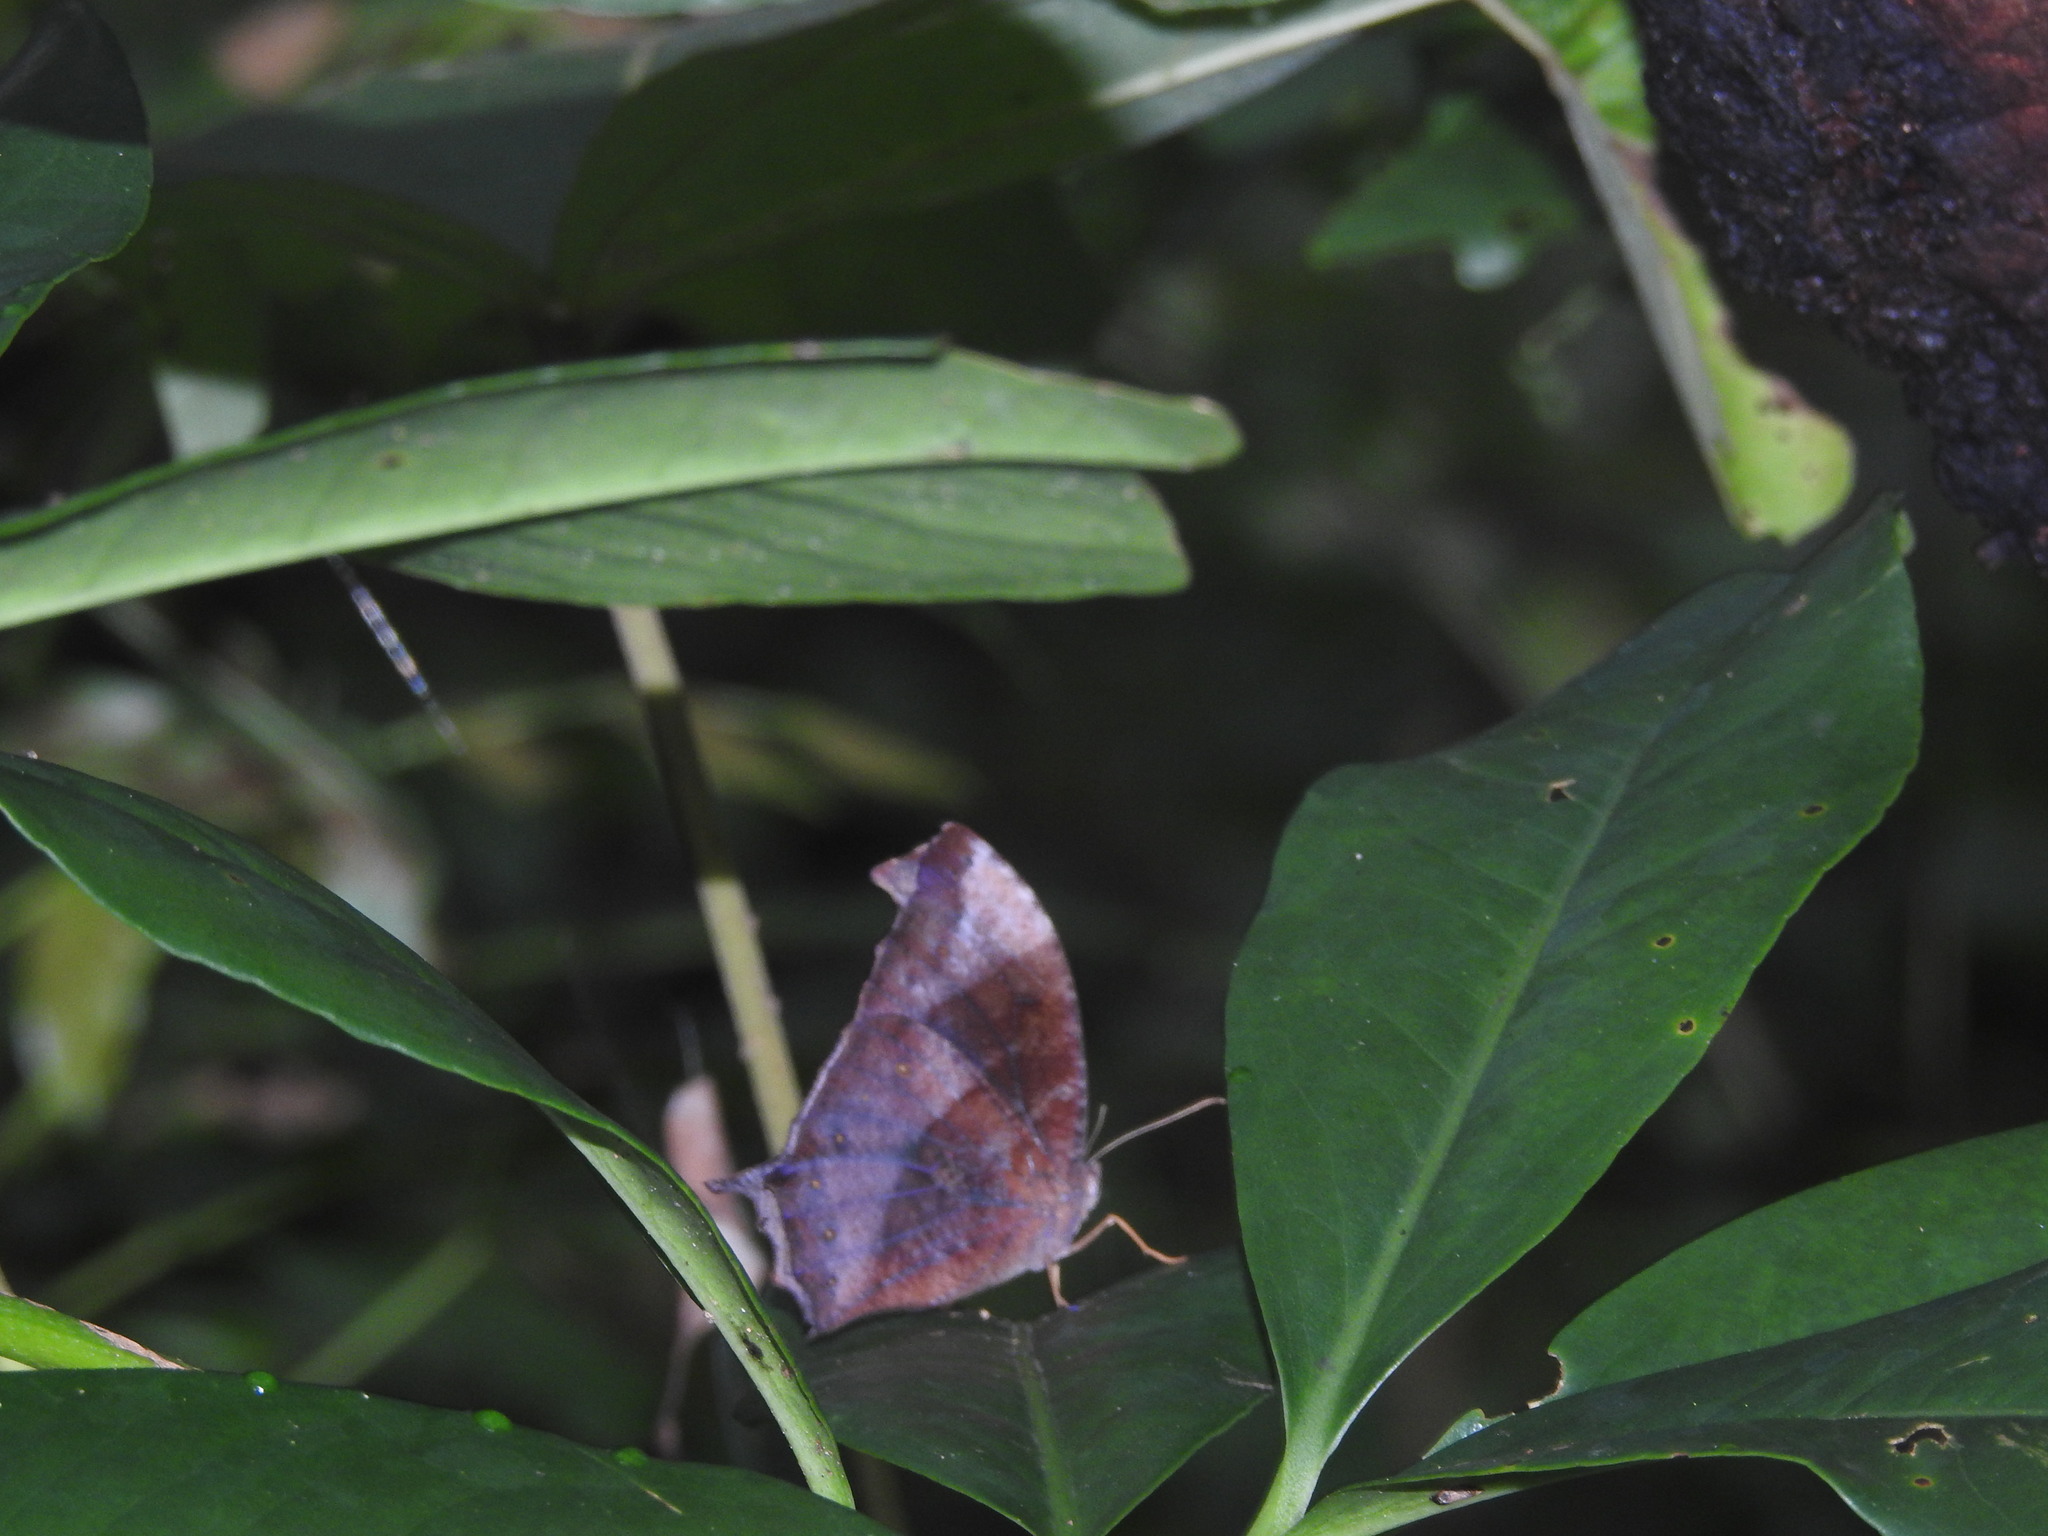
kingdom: Animalia
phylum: Arthropoda
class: Insecta
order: Lepidoptera
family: Nymphalidae
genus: Melanitis
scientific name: Melanitis phedima
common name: Dark evening brown
